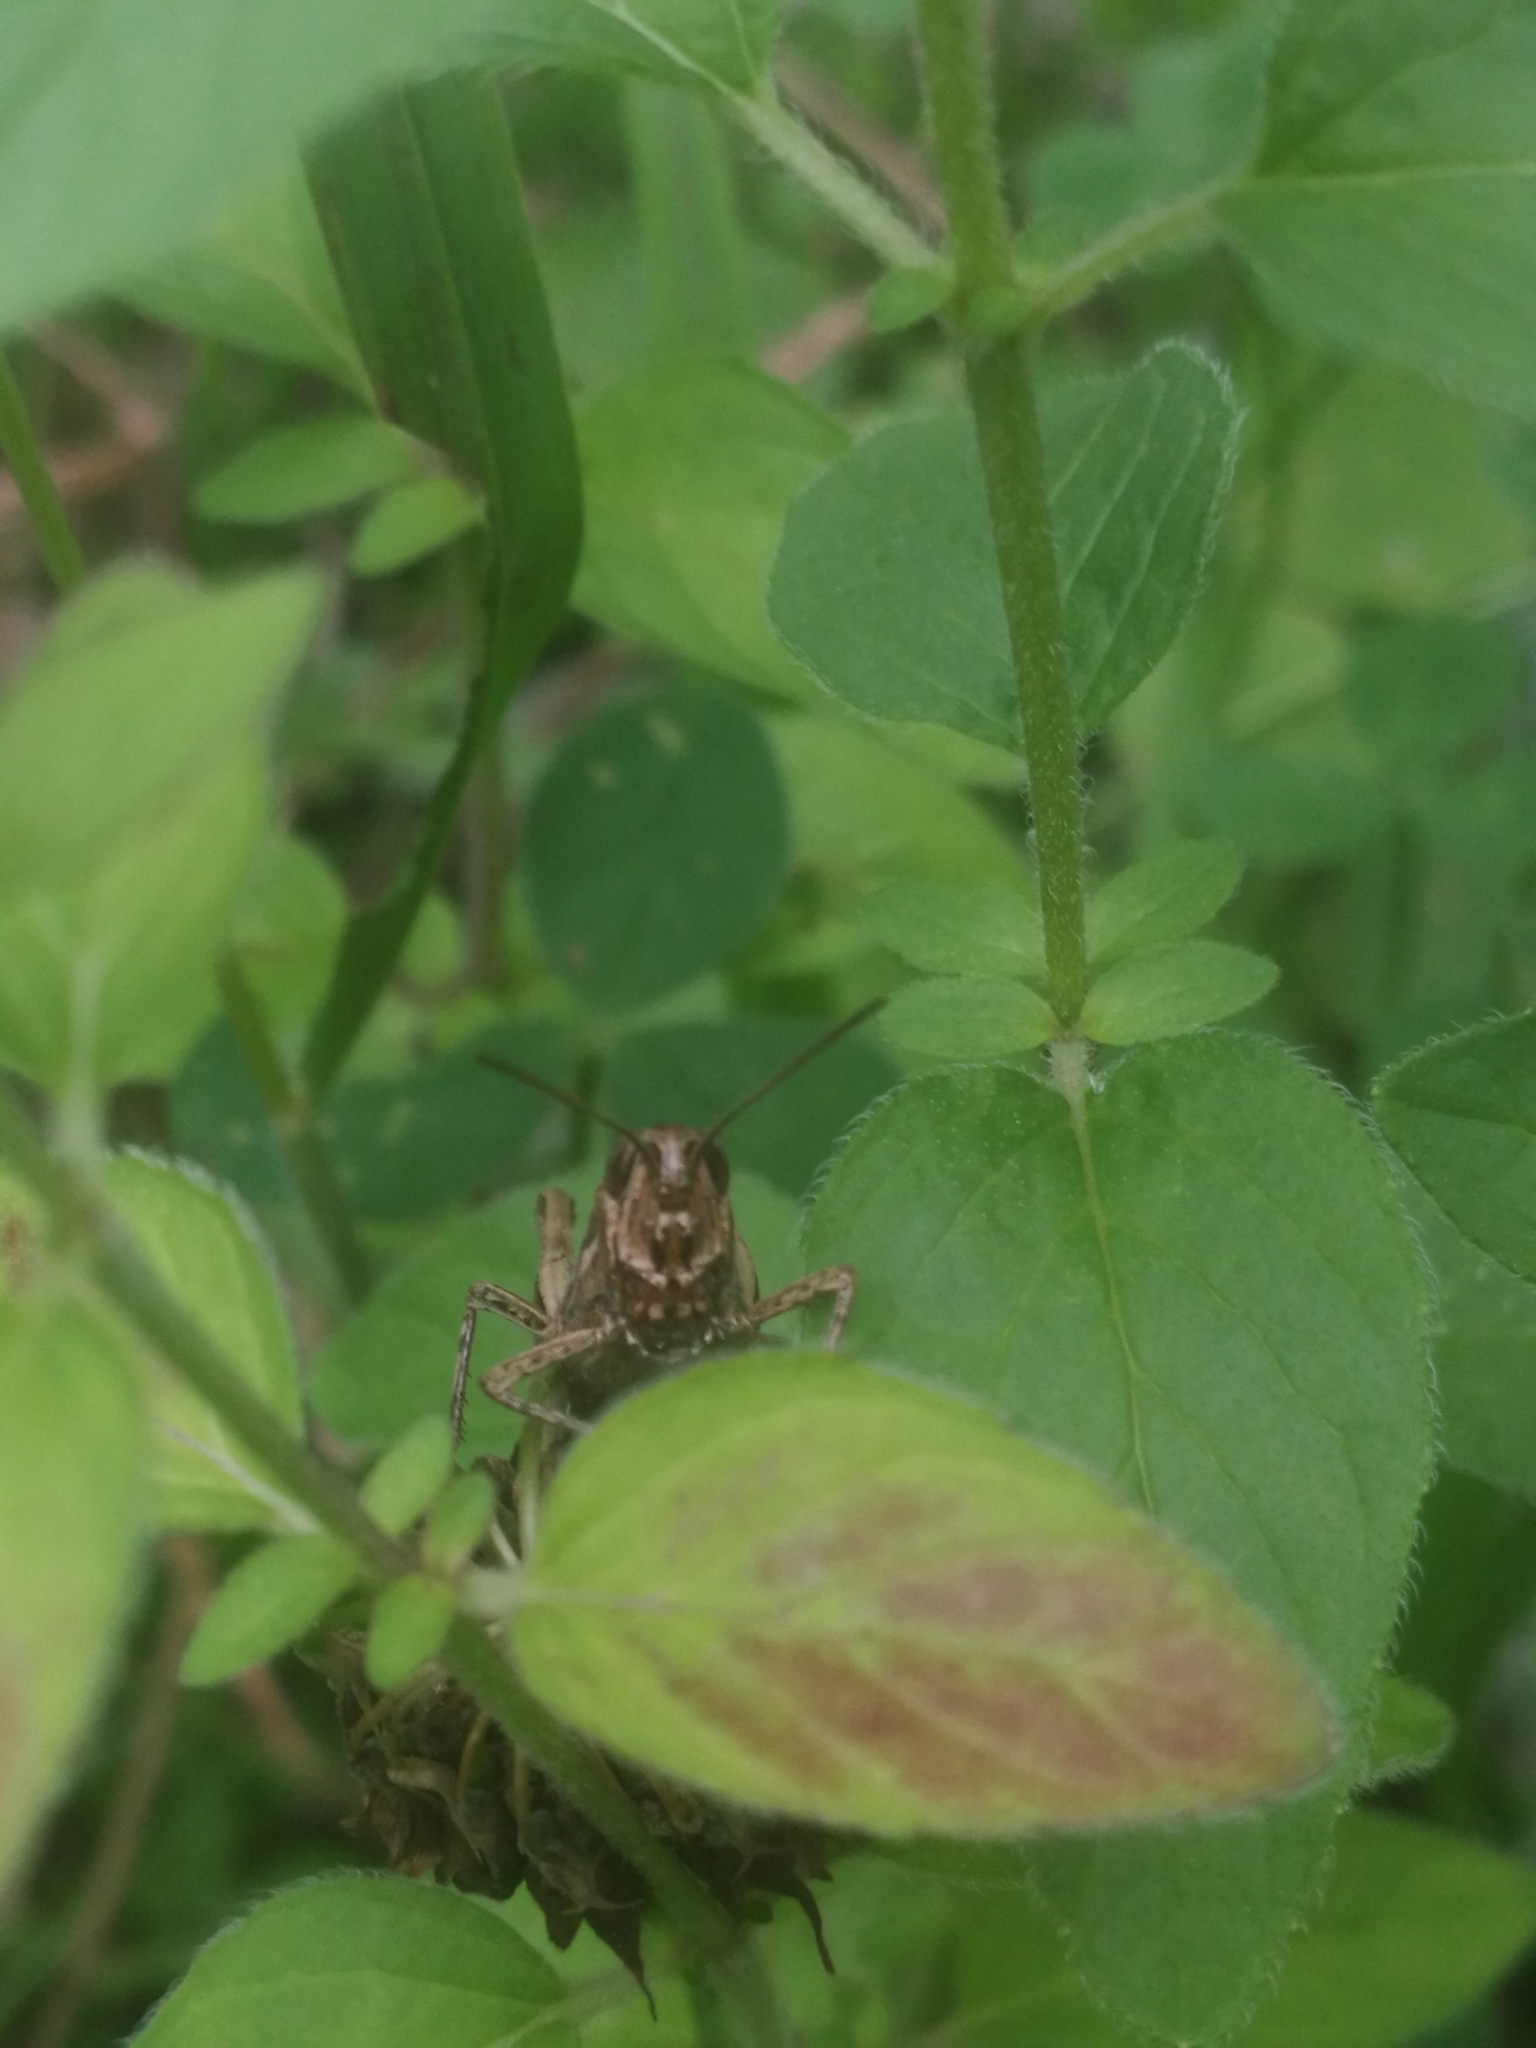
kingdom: Animalia
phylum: Arthropoda
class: Insecta
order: Orthoptera
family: Acrididae
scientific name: Acrididae
